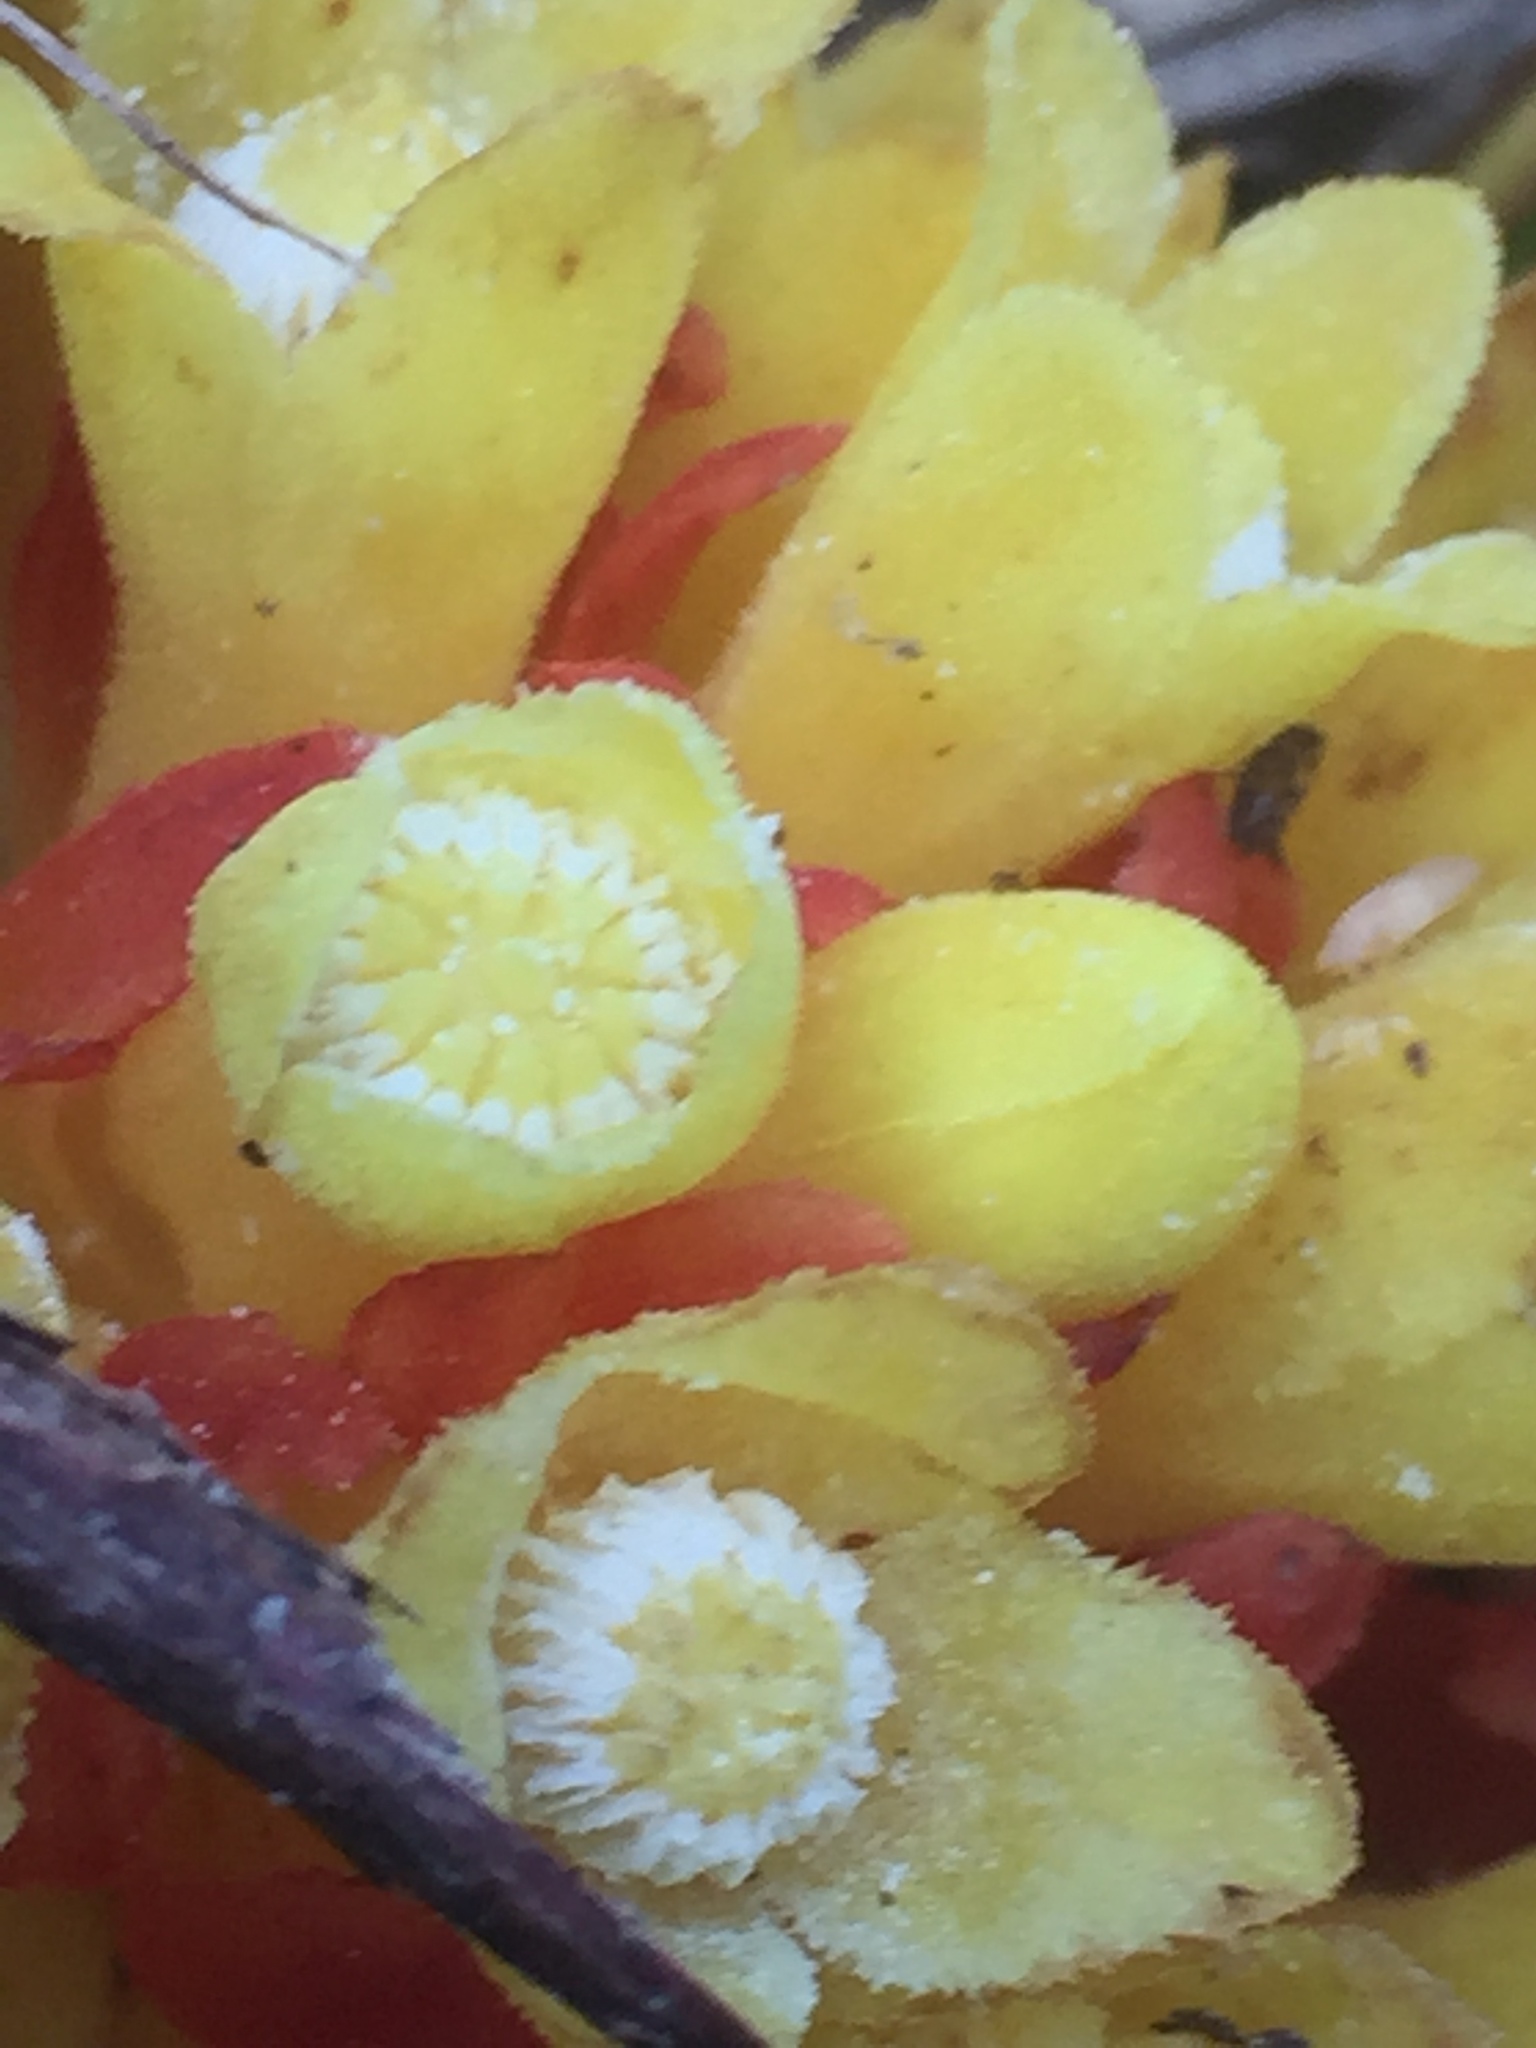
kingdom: Plantae
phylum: Tracheophyta
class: Magnoliopsida
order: Malvales
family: Cytinaceae
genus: Cytinus
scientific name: Cytinus hypocistis
